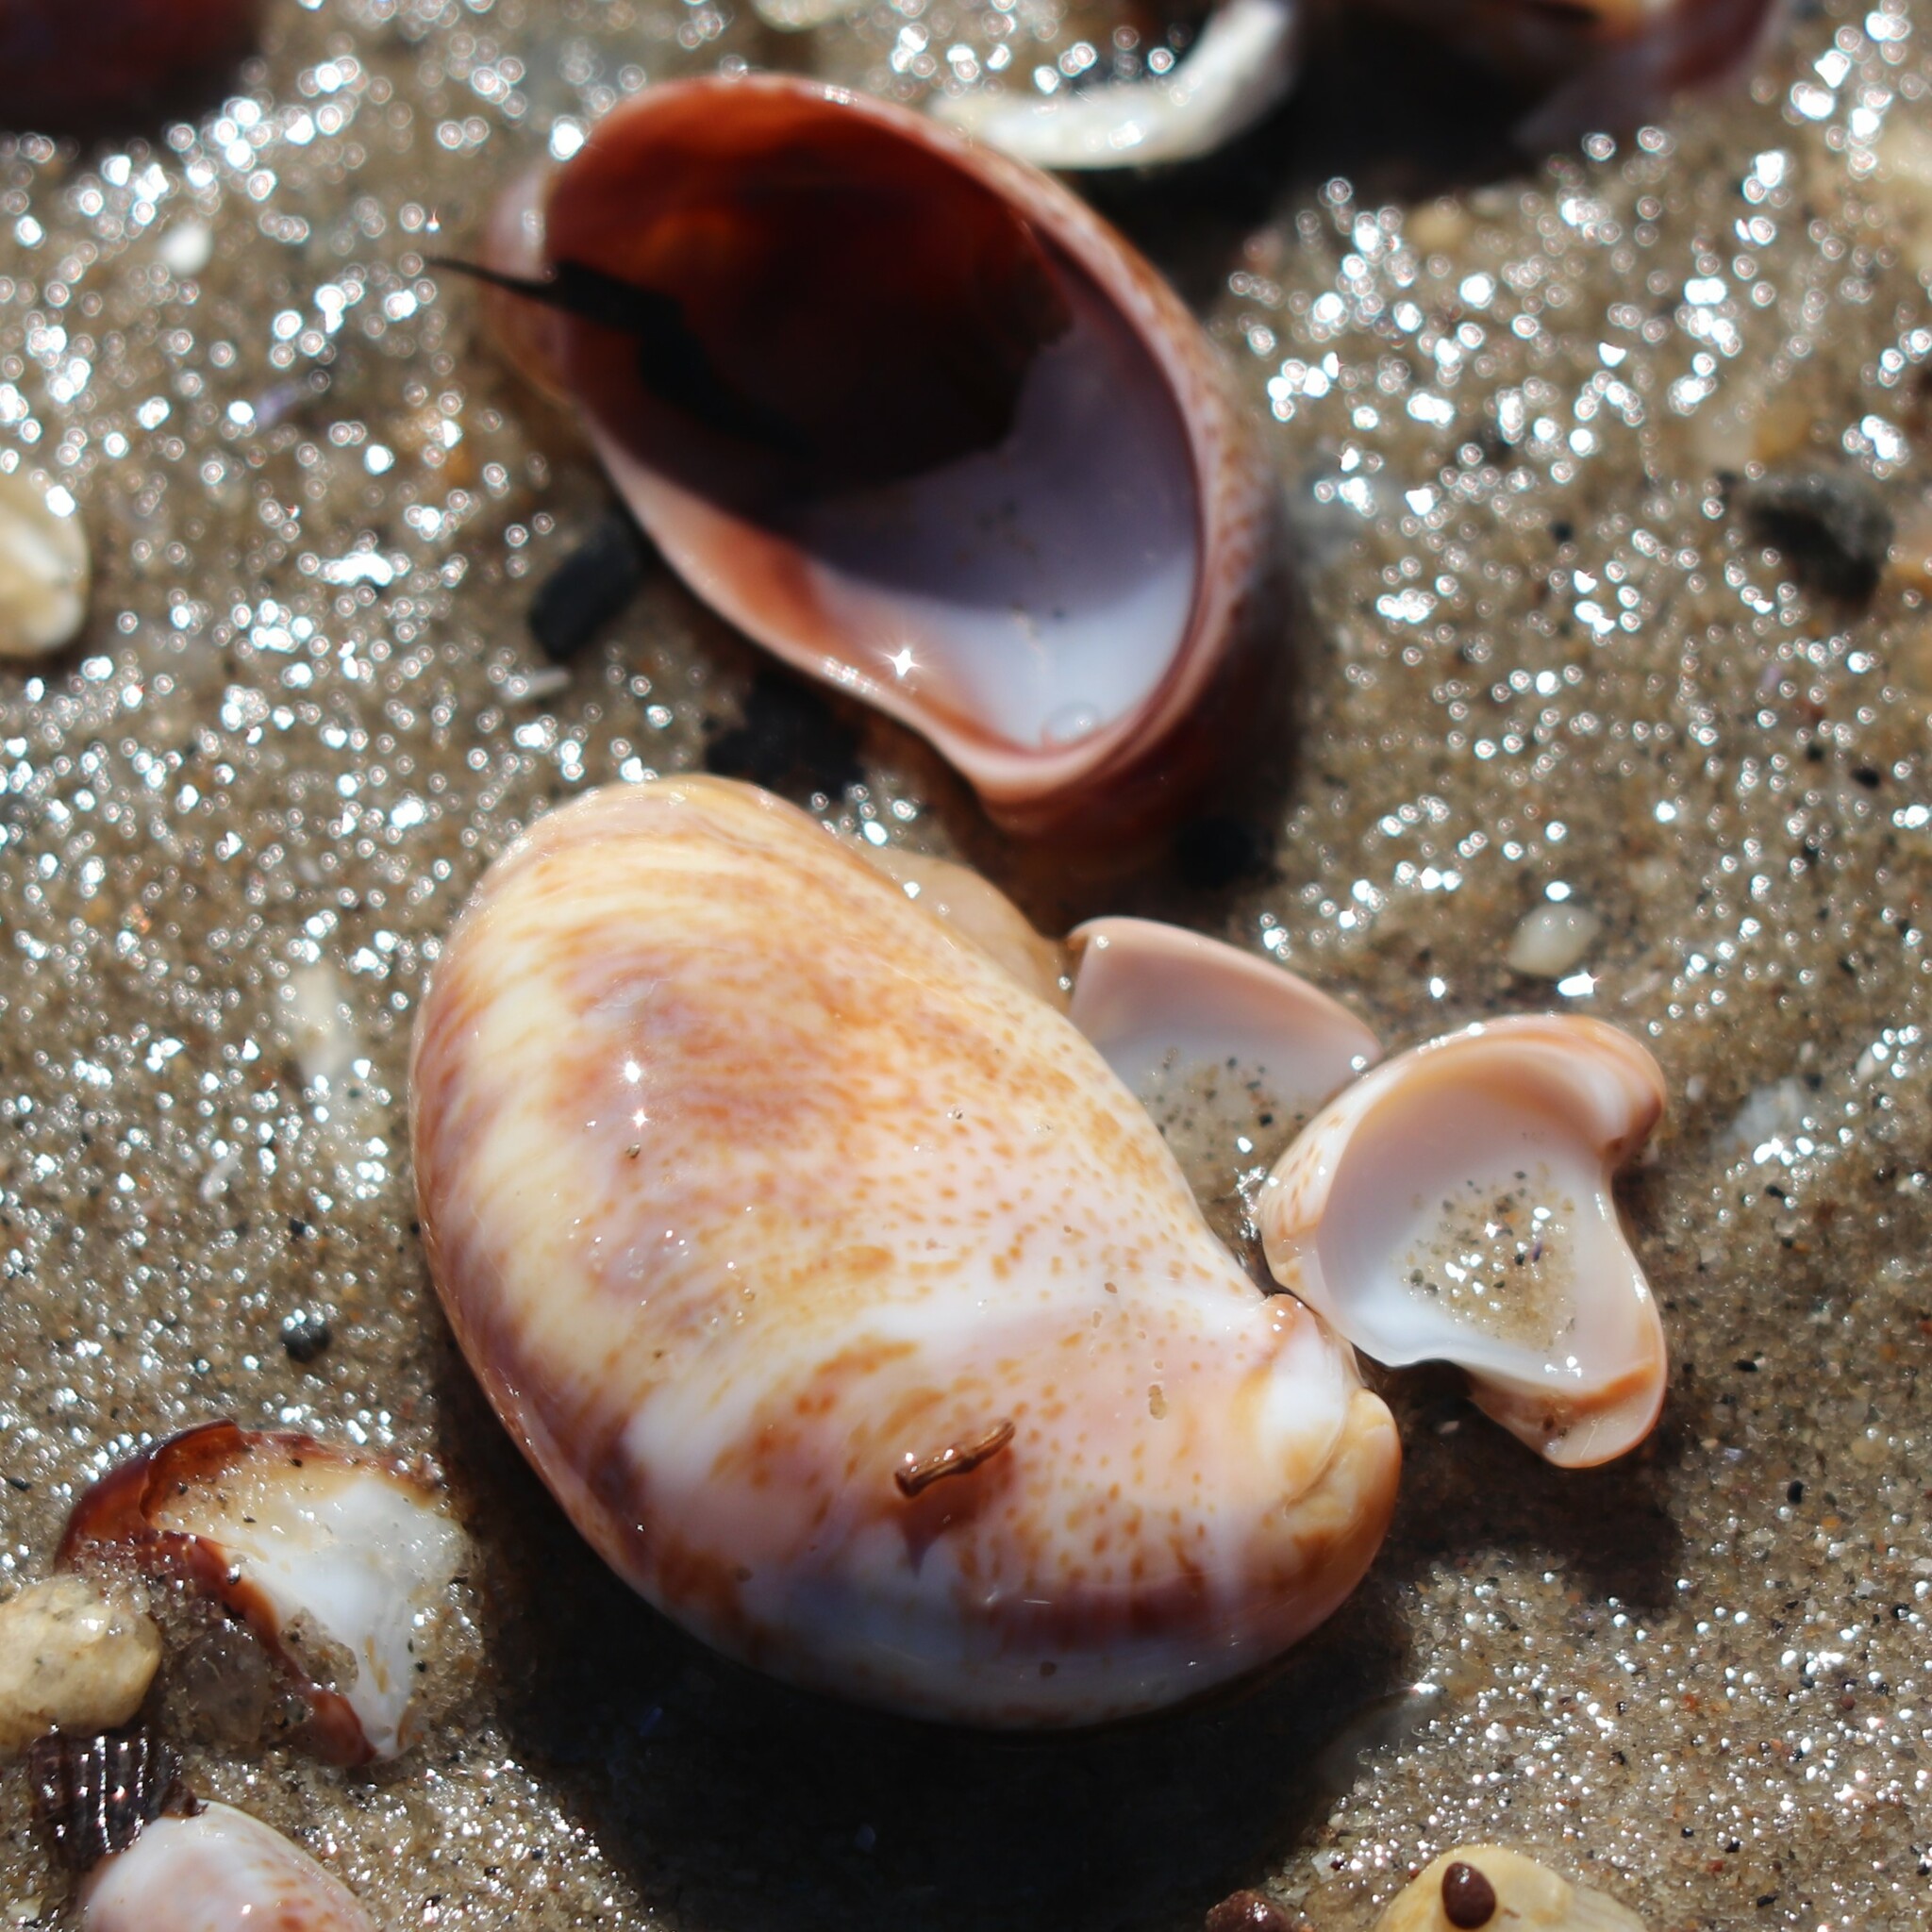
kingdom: Animalia
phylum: Mollusca
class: Gastropoda
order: Littorinimorpha
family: Calyptraeidae
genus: Crepidula
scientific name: Crepidula fornicata
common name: Slipper limpet
